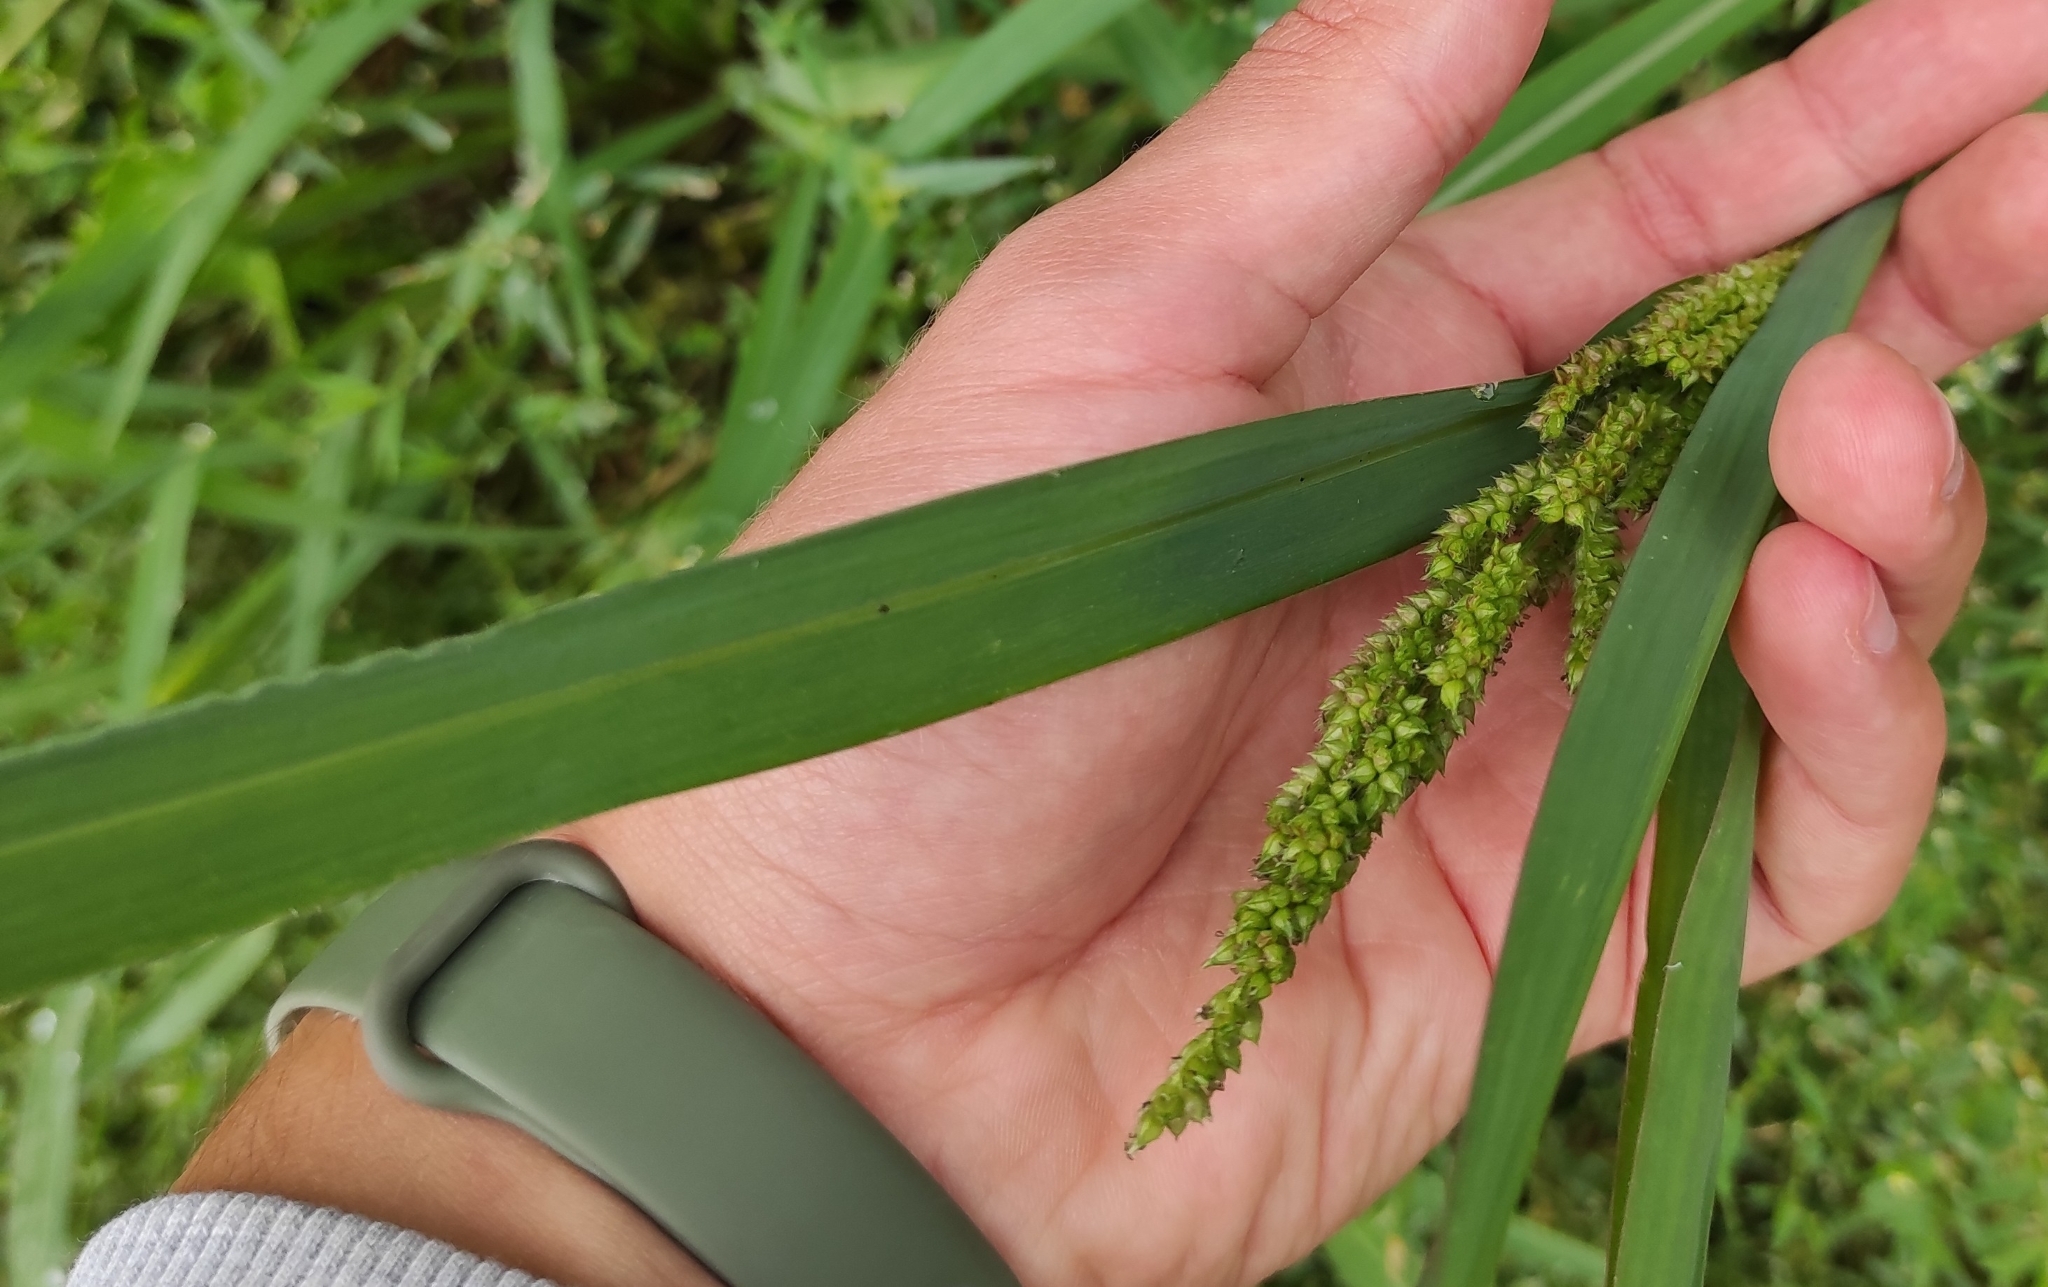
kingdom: Plantae
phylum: Tracheophyta
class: Liliopsida
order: Poales
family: Poaceae
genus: Echinochloa
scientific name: Echinochloa crus-galli
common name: Cockspur
